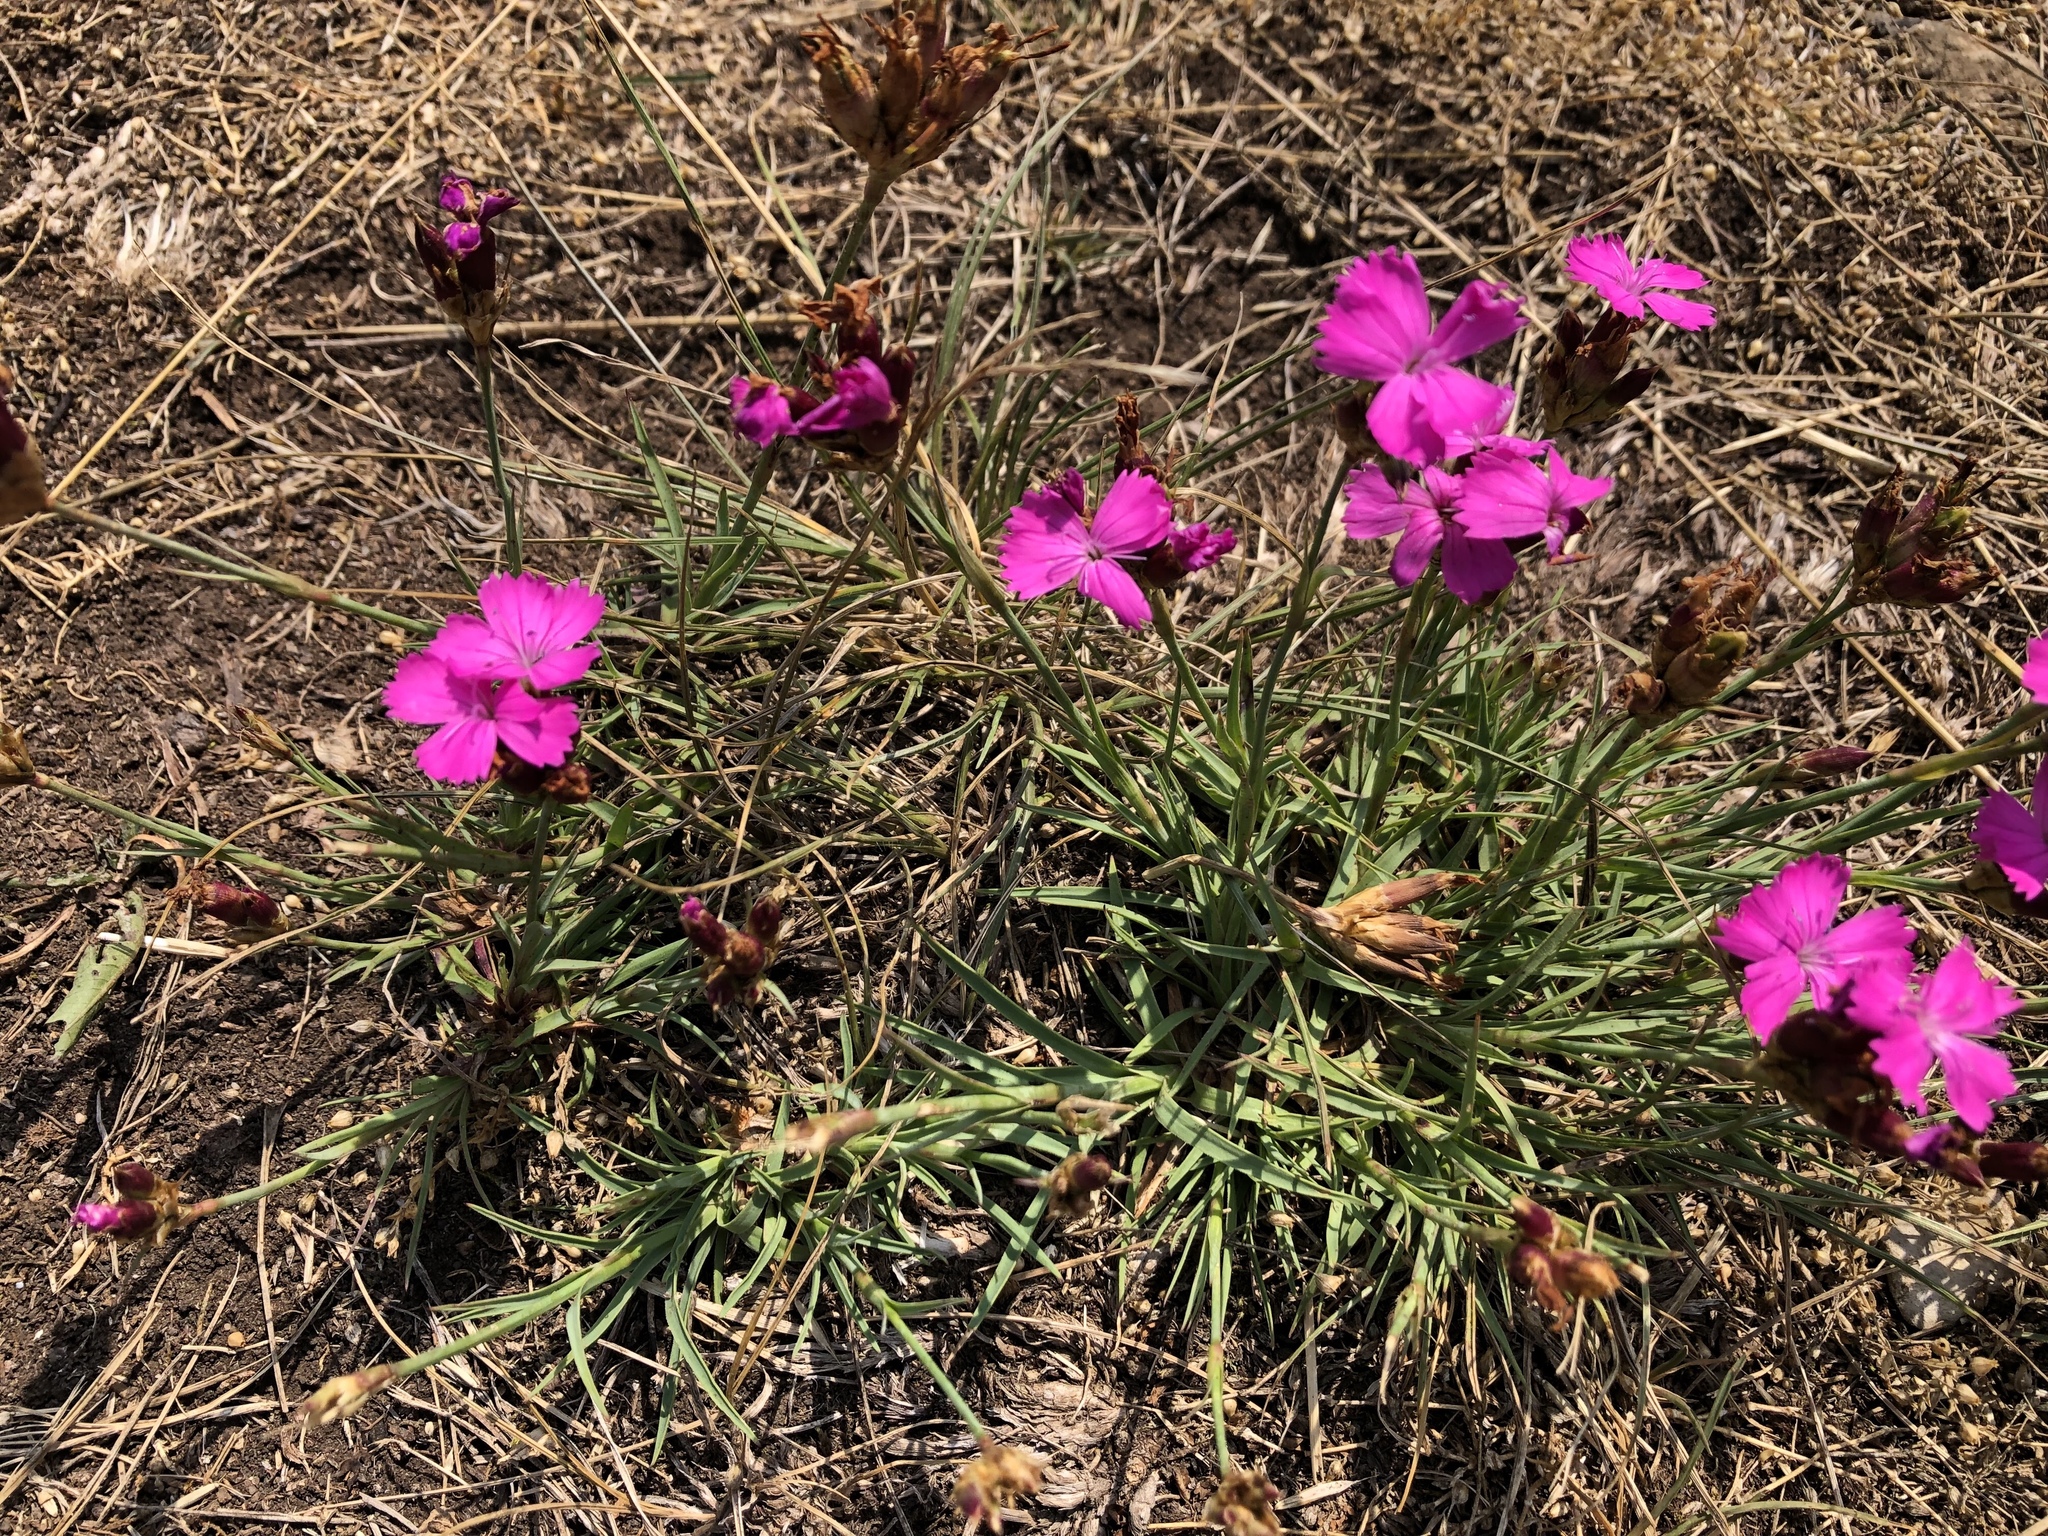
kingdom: Plantae
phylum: Tracheophyta
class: Magnoliopsida
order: Caryophyllales
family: Caryophyllaceae
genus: Dianthus
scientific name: Dianthus carthusianorum
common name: Carthusian pink
